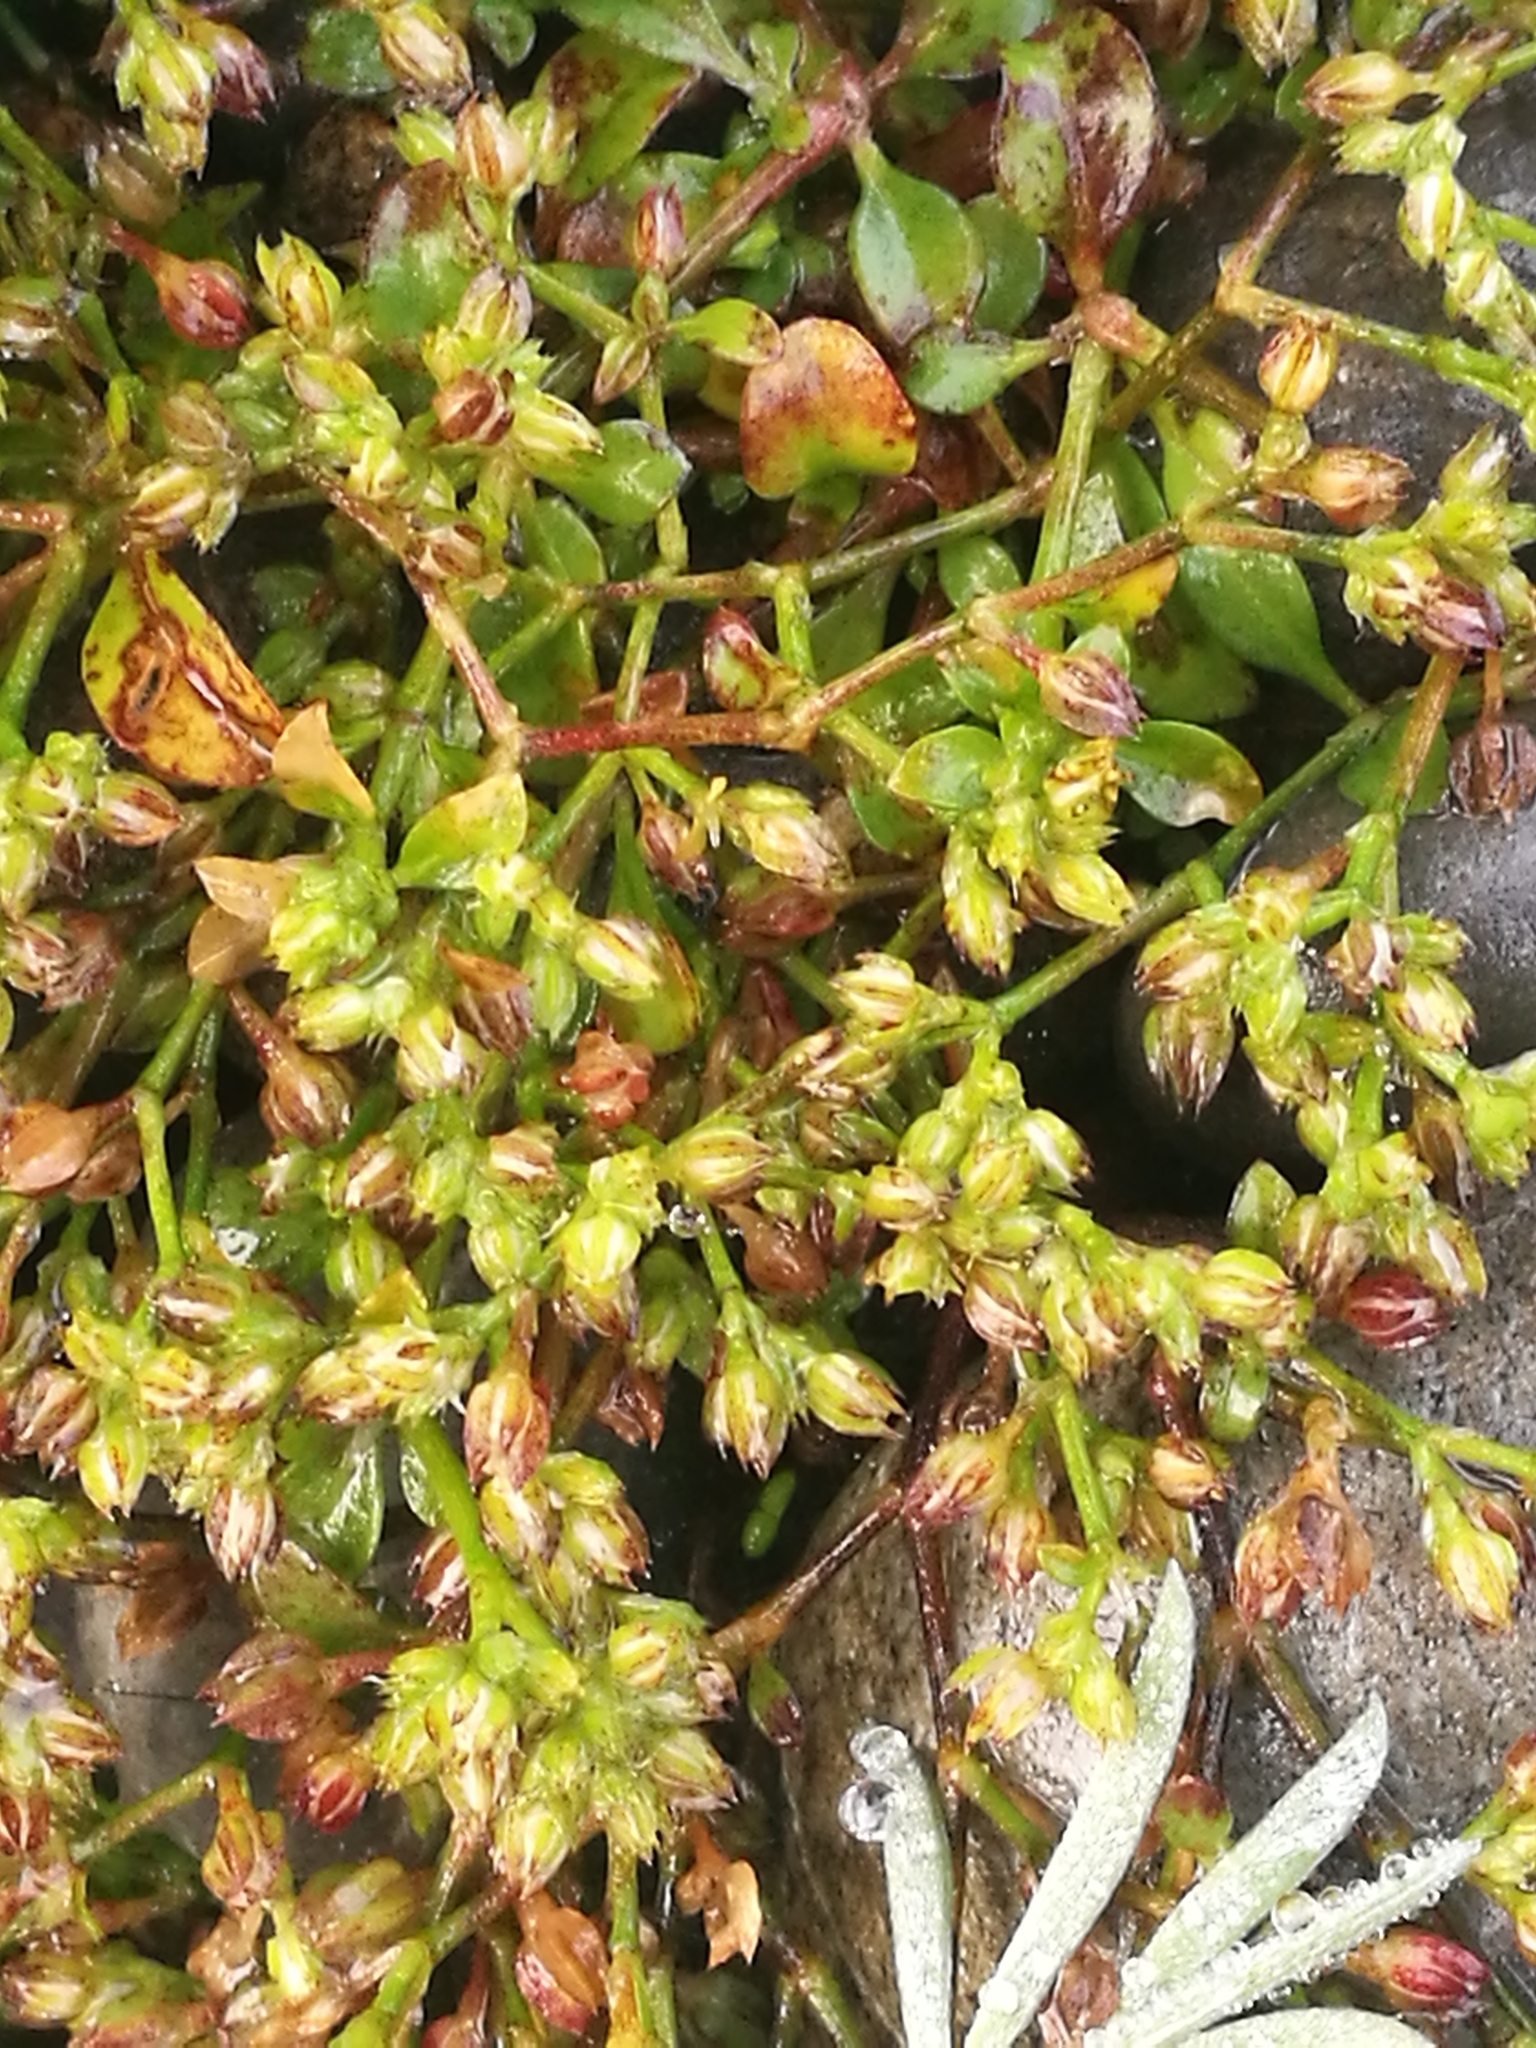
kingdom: Plantae
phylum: Tracheophyta
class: Magnoliopsida
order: Caryophyllales
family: Caryophyllaceae
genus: Polycarpon
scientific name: Polycarpon tetraphyllum
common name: Four-leaved all-seed
